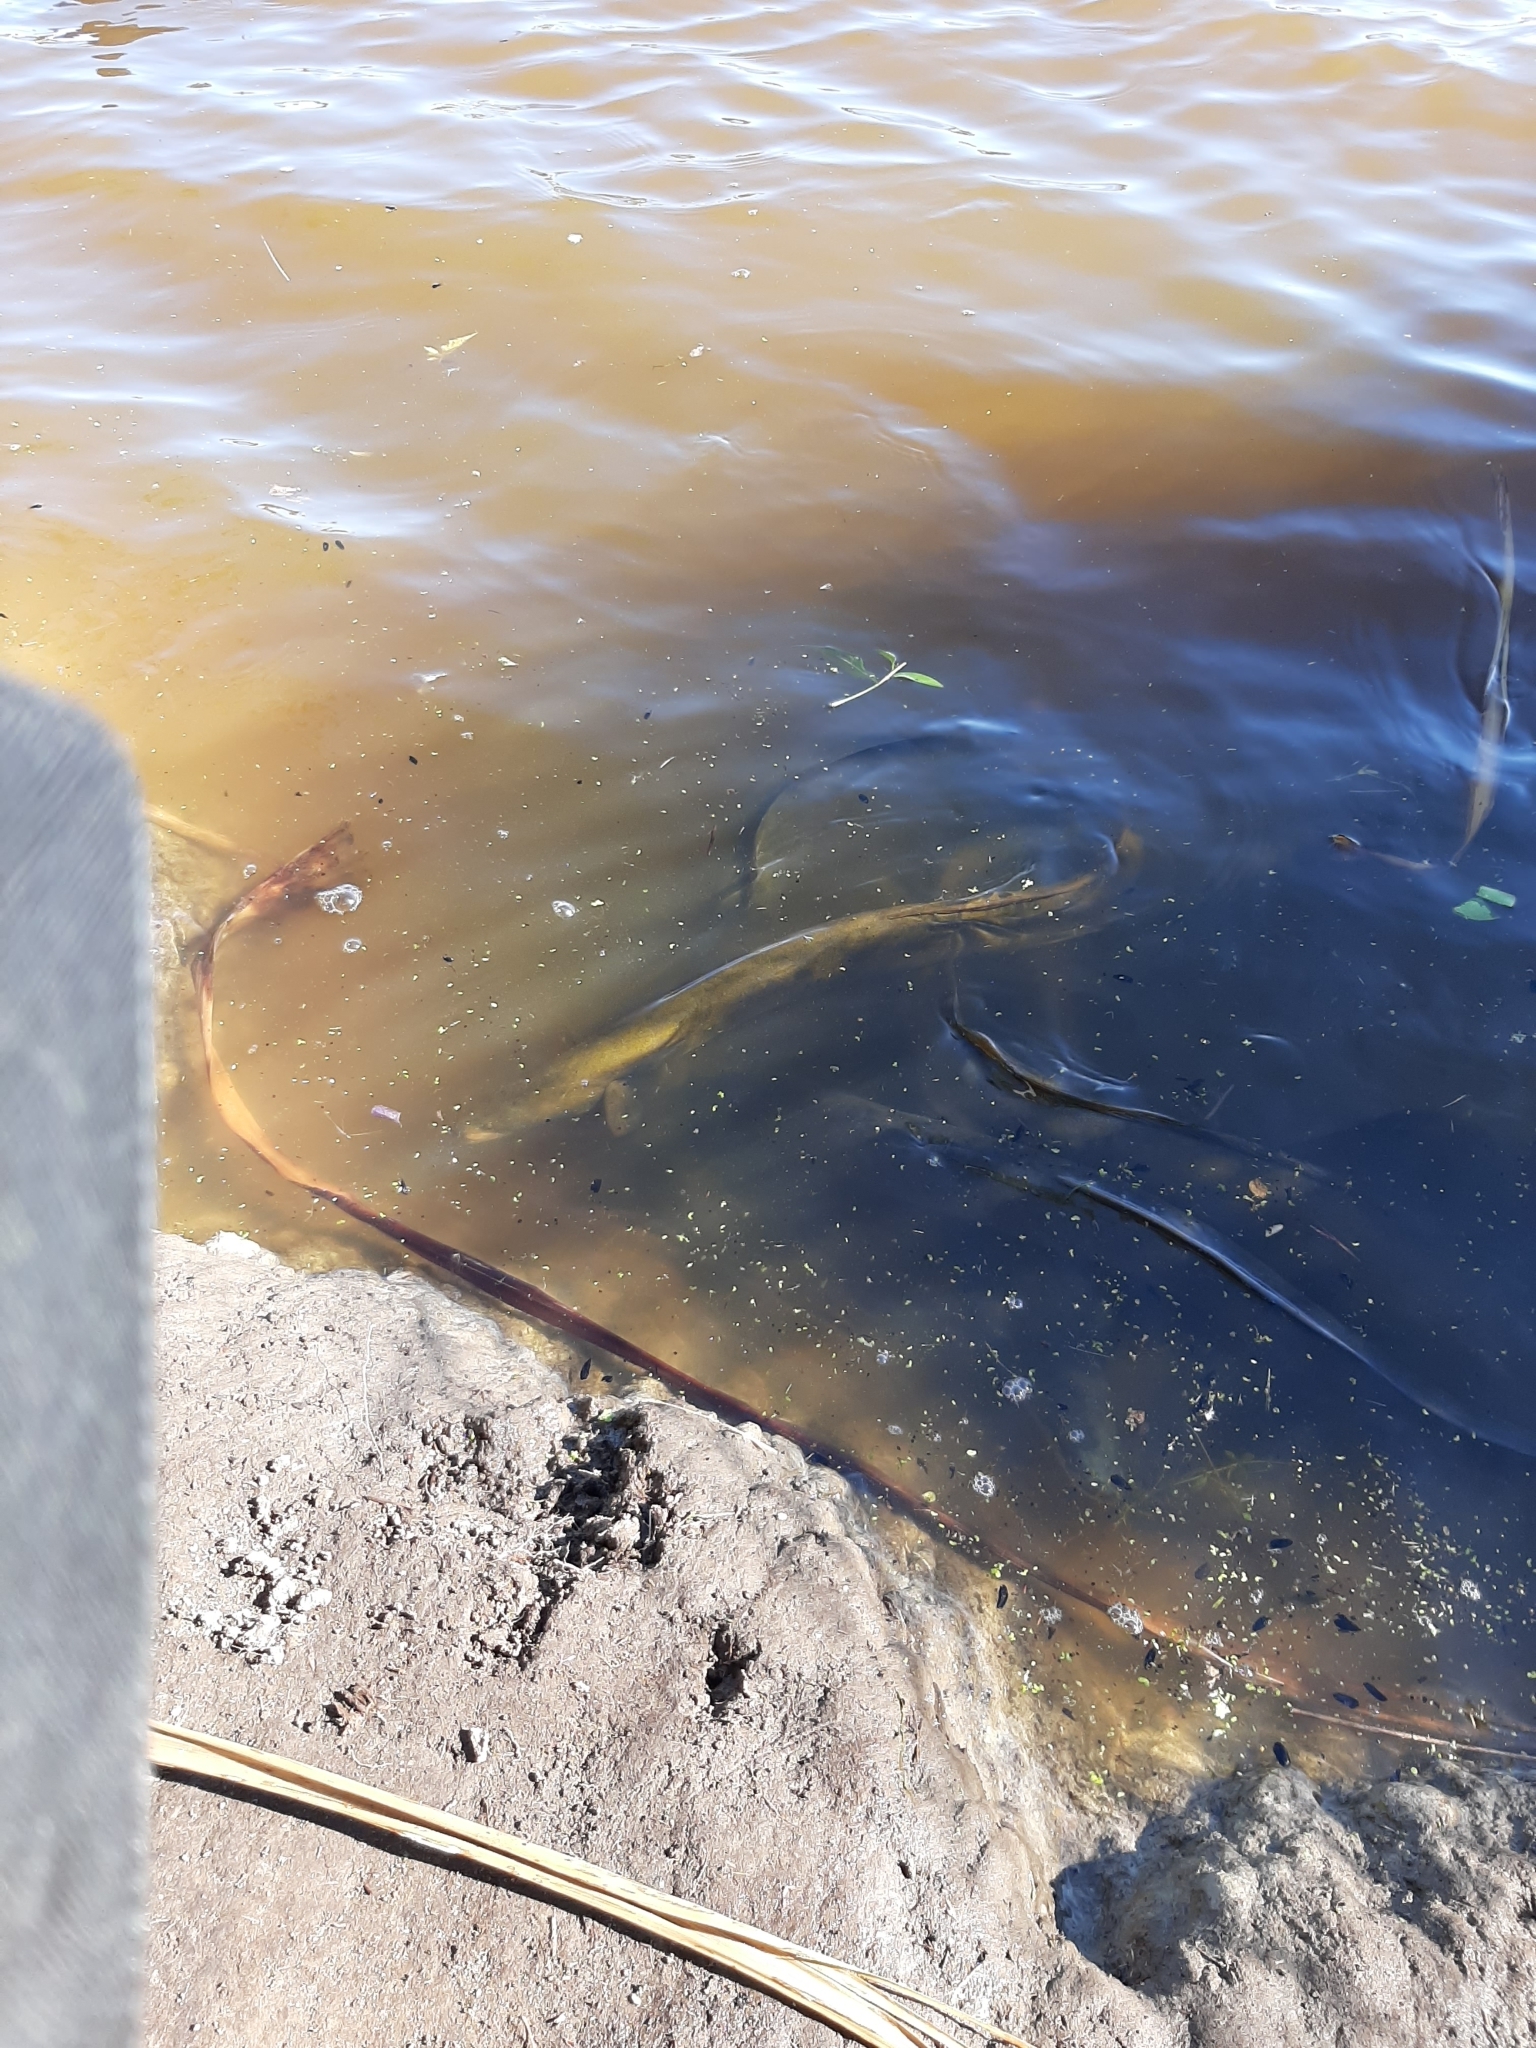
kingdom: Animalia
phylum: Chordata
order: Anguilliformes
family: Anguillidae
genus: Anguilla
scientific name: Anguilla australis
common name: Shortfin eel
